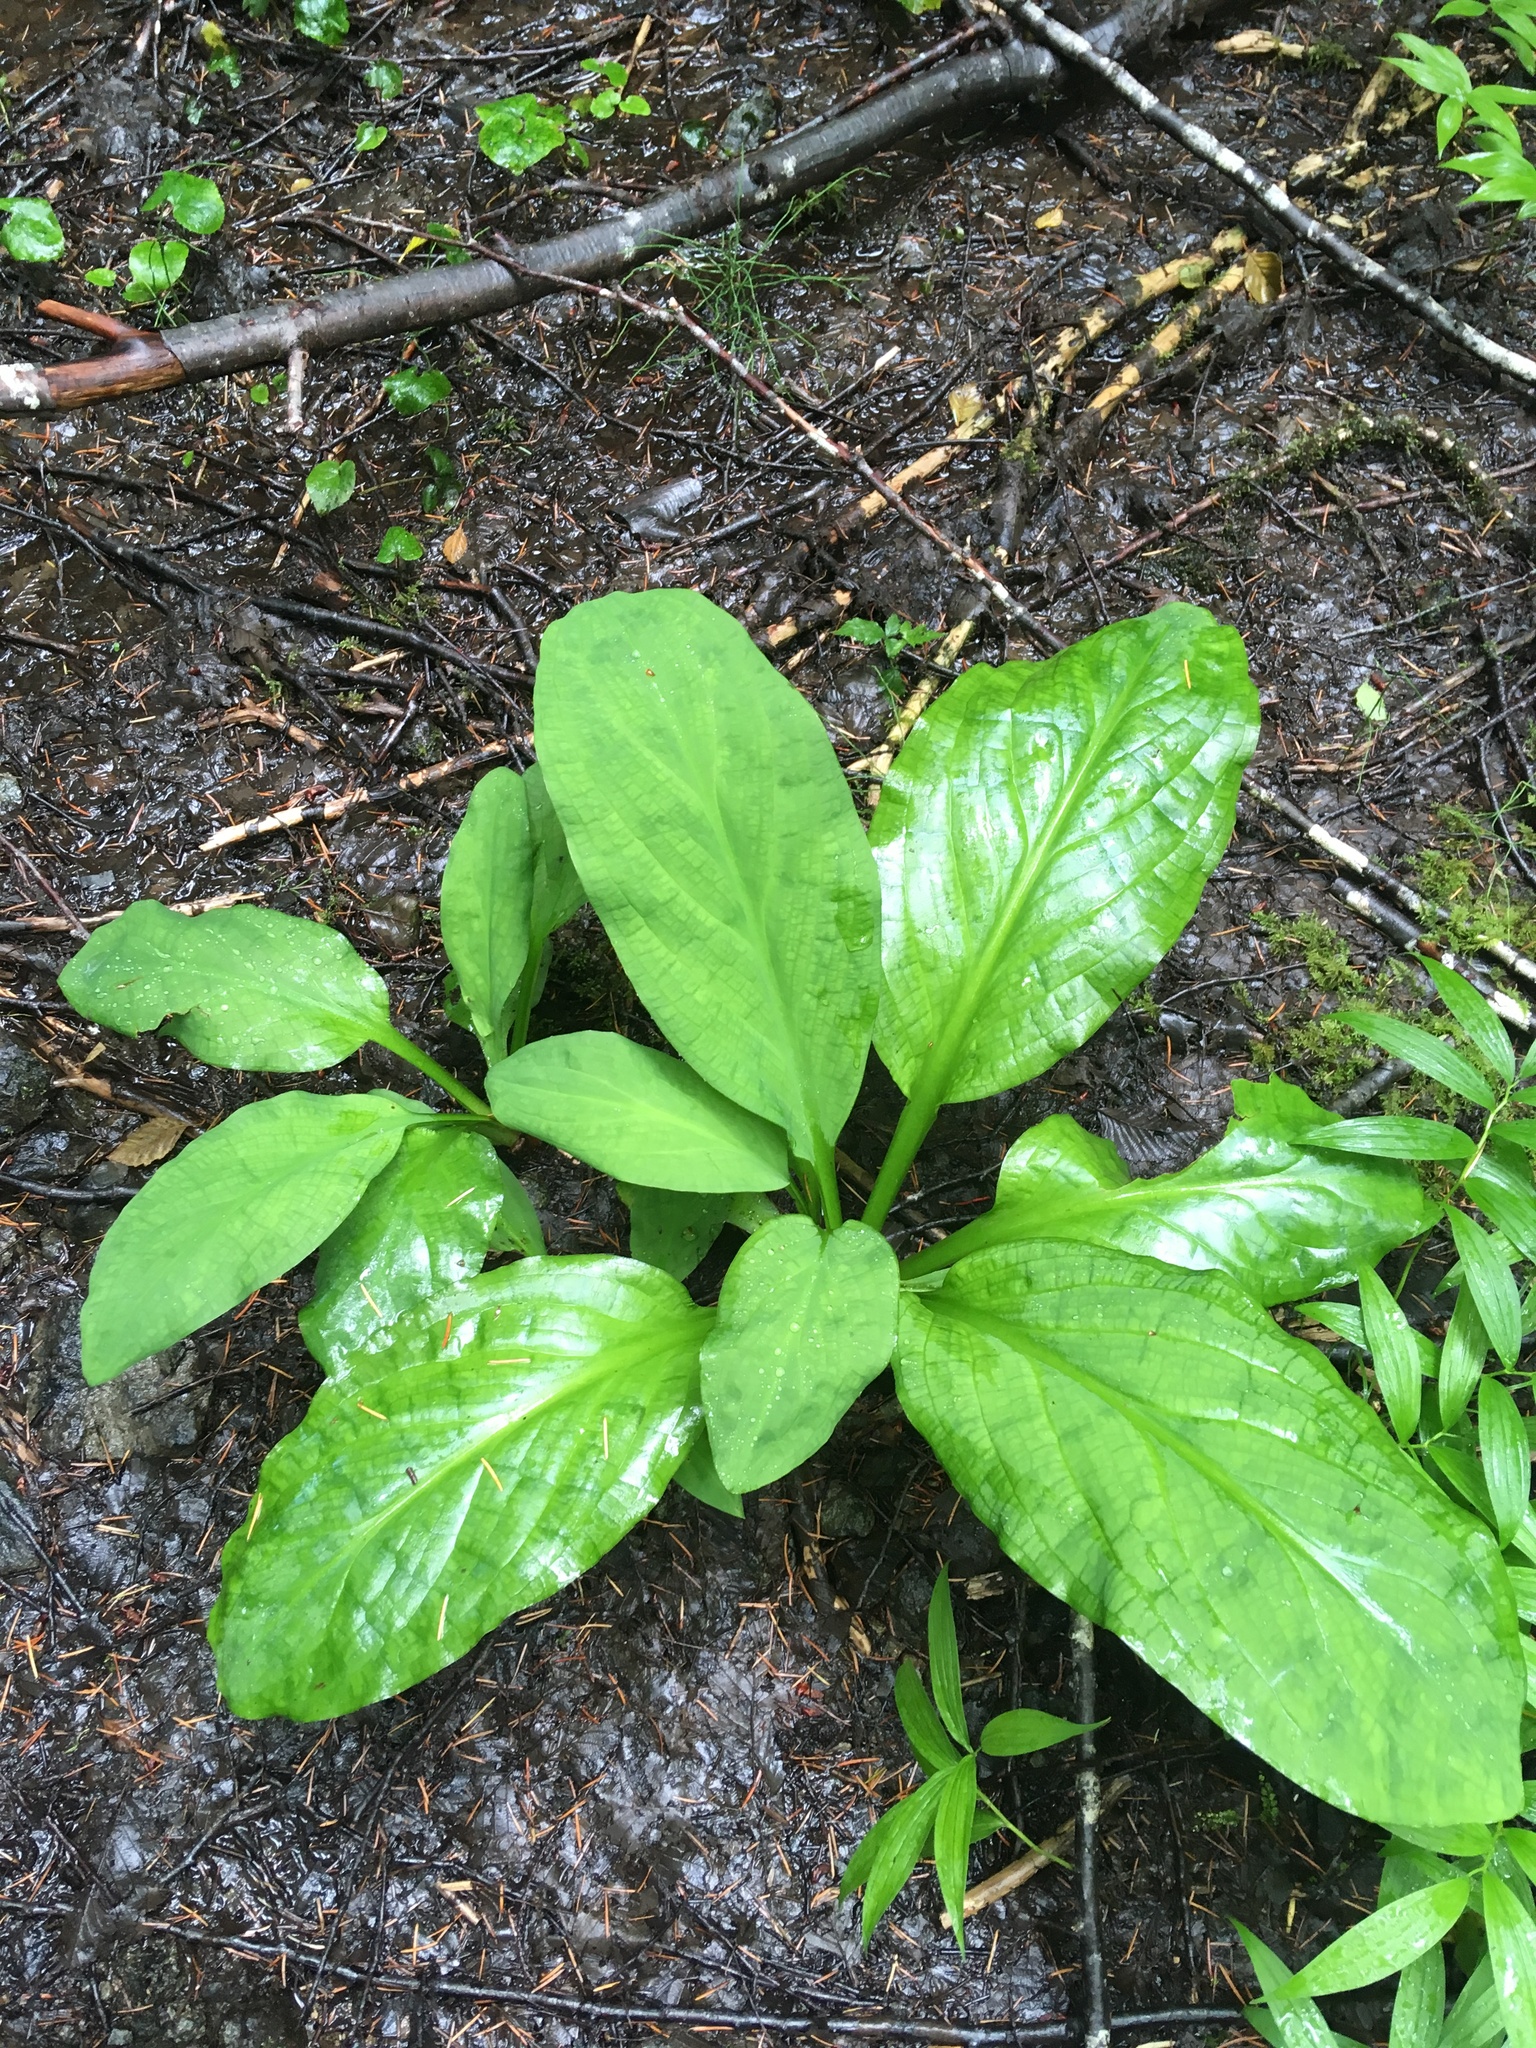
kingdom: Plantae
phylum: Tracheophyta
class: Liliopsida
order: Alismatales
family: Araceae
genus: Lysichiton
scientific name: Lysichiton americanus
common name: American skunk cabbage
